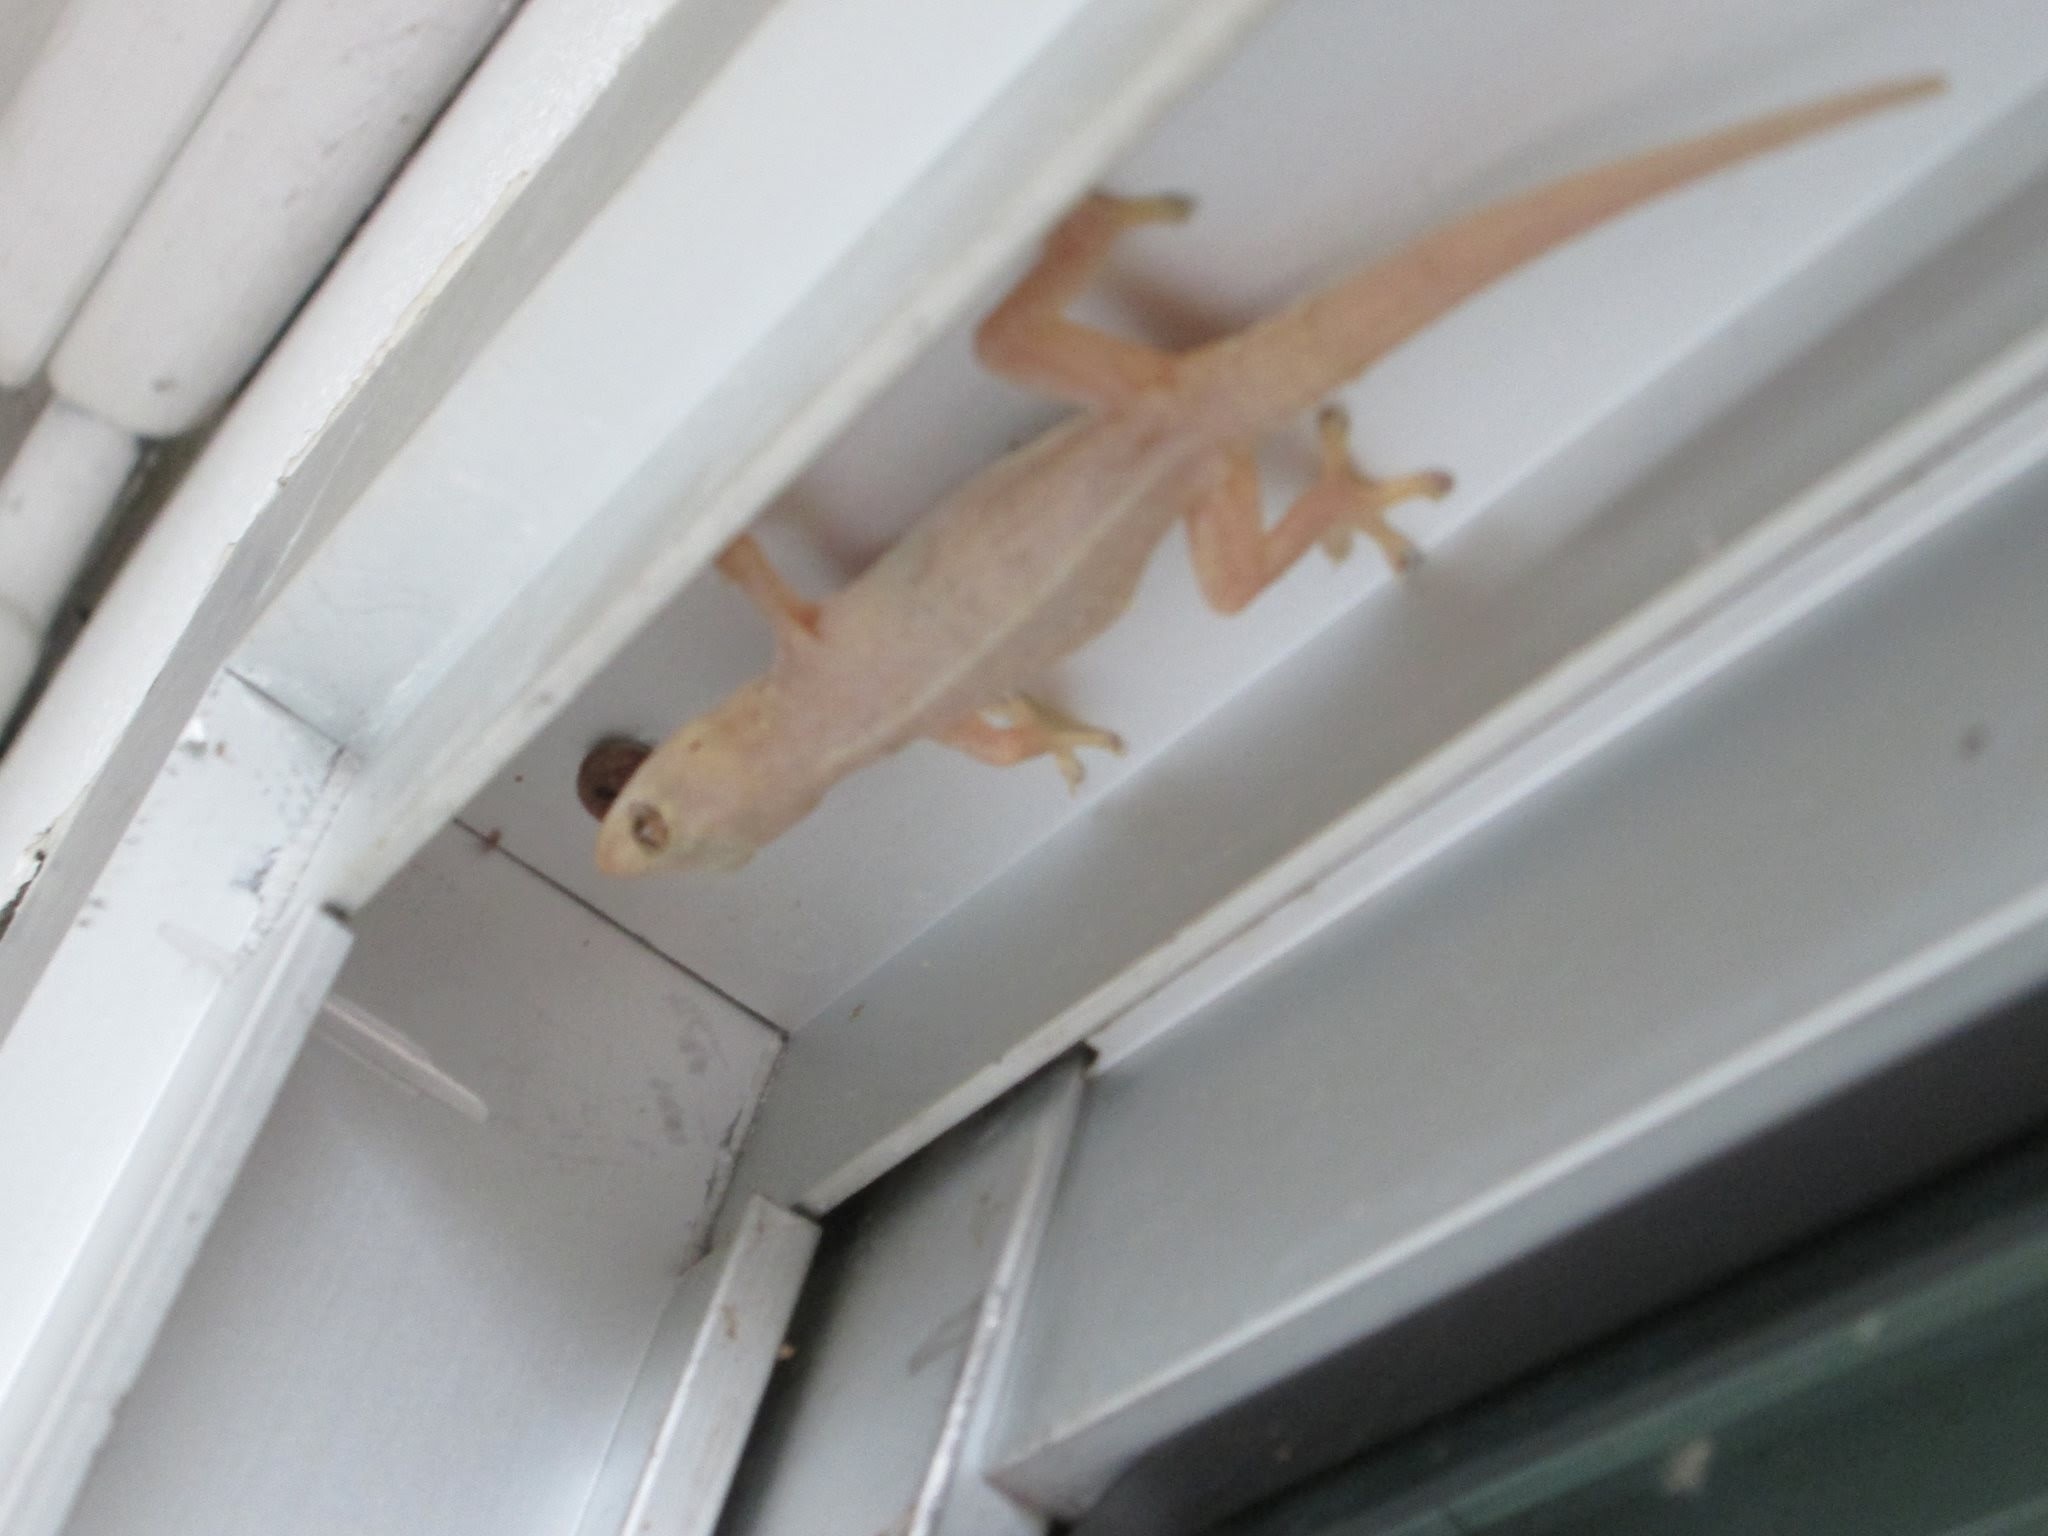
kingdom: Animalia
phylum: Chordata
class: Squamata
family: Gekkonidae
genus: Hemidactylus
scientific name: Hemidactylus frenatus
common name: Common house gecko
